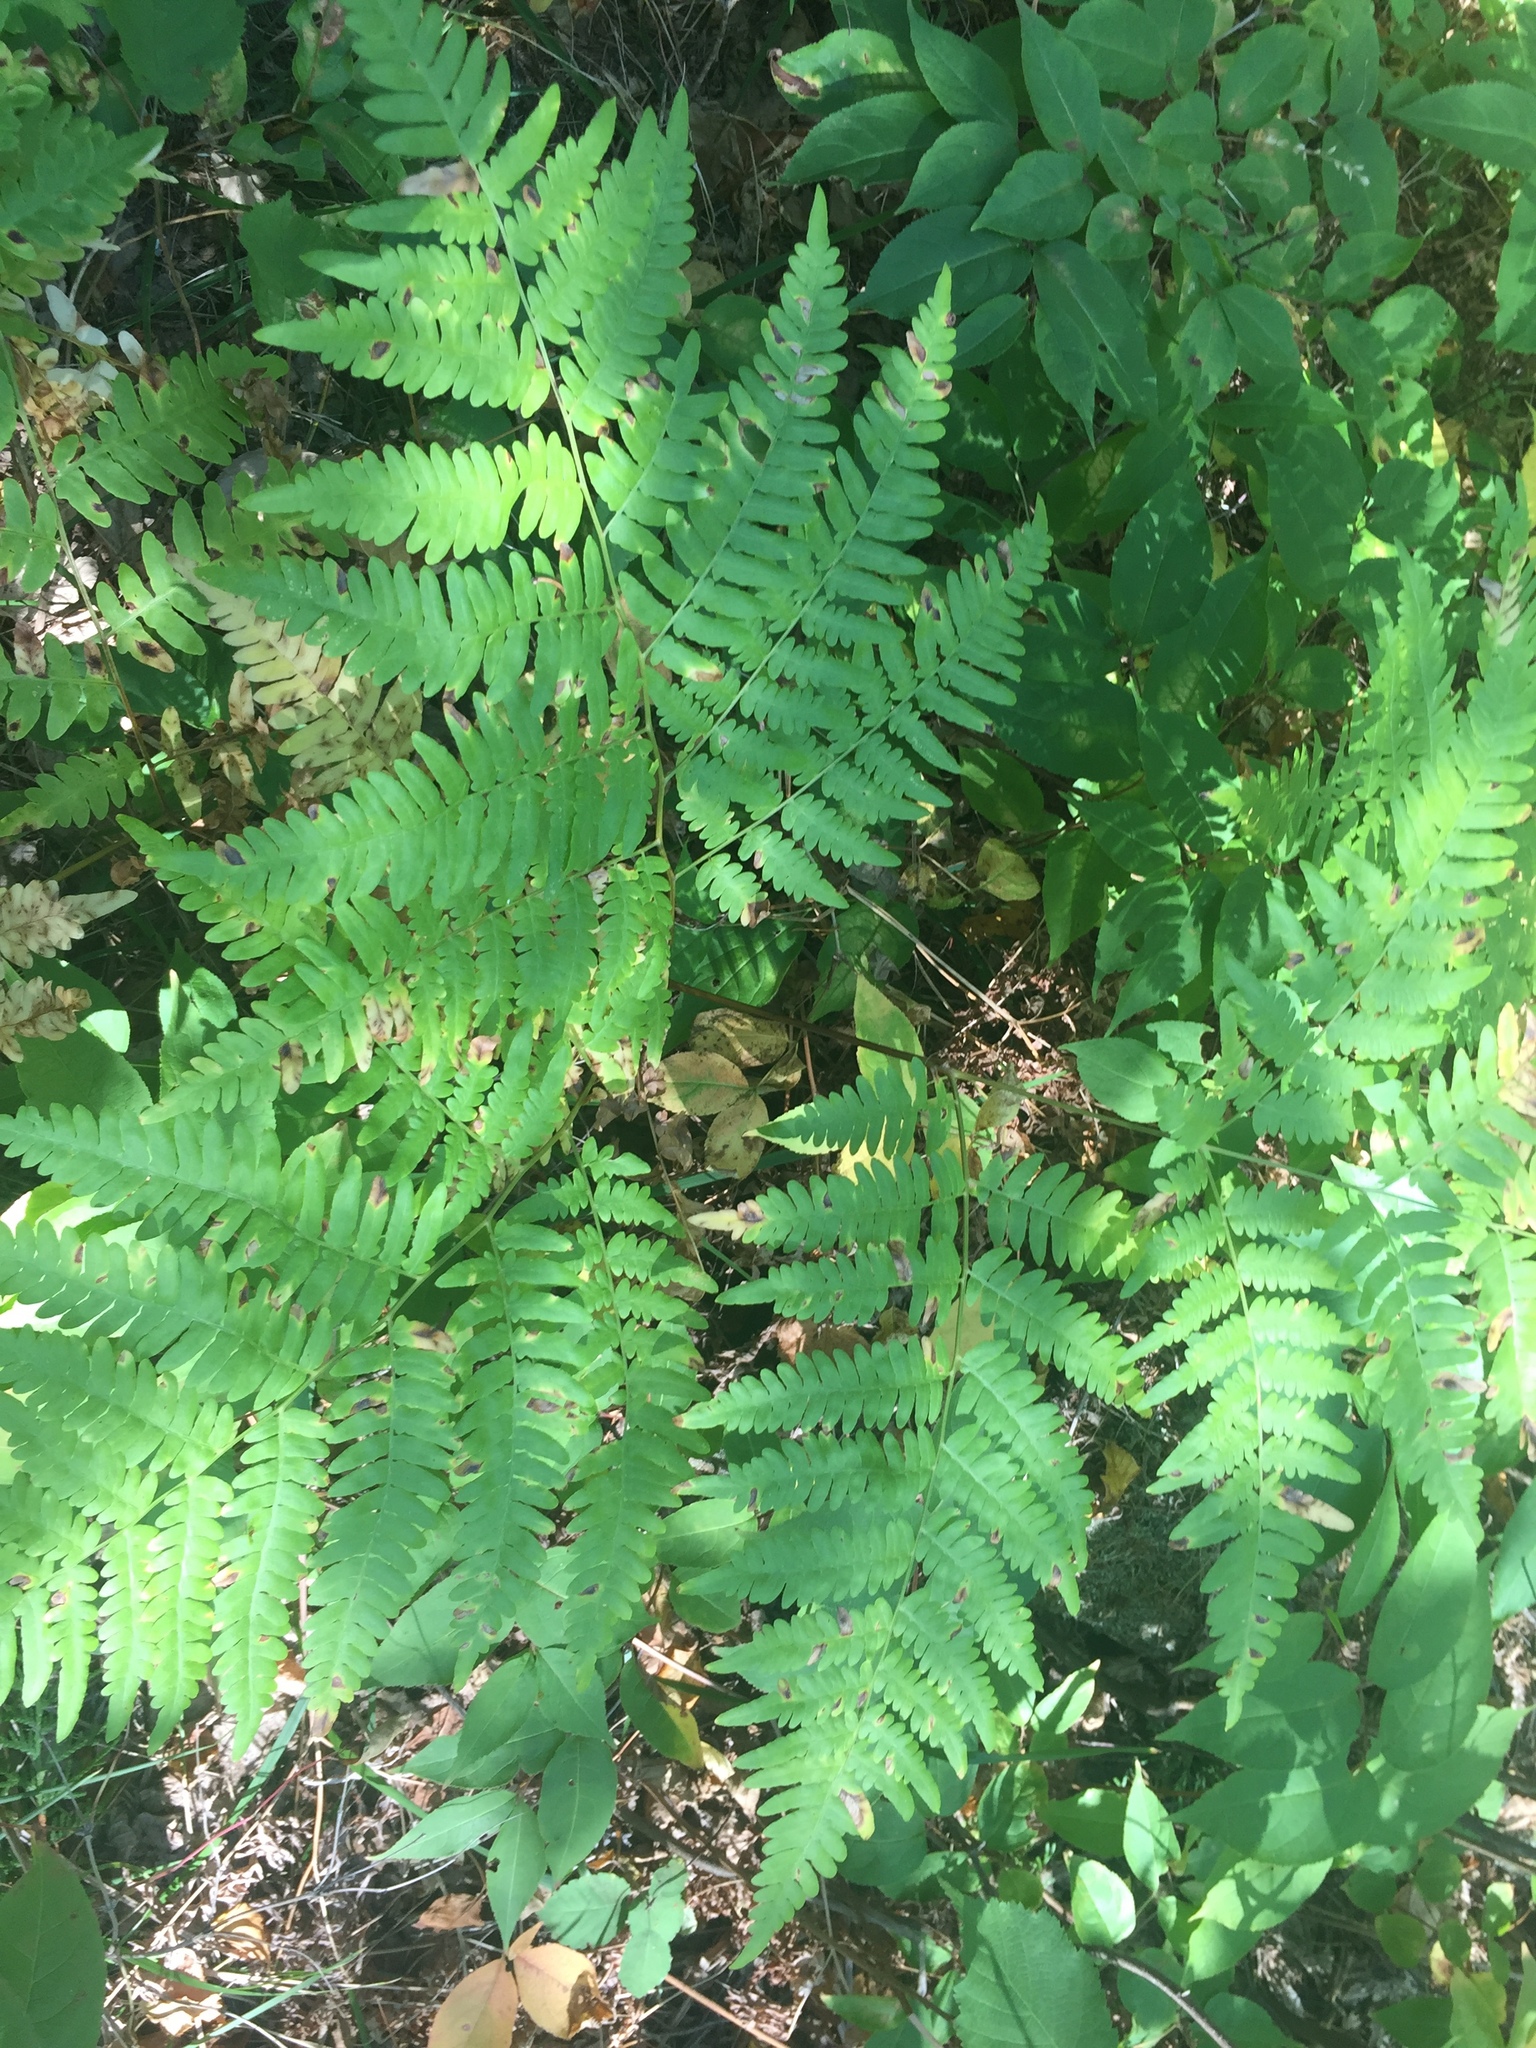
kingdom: Plantae
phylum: Tracheophyta
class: Polypodiopsida
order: Polypodiales
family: Dennstaedtiaceae
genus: Pteridium
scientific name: Pteridium aquilinum
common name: Bracken
